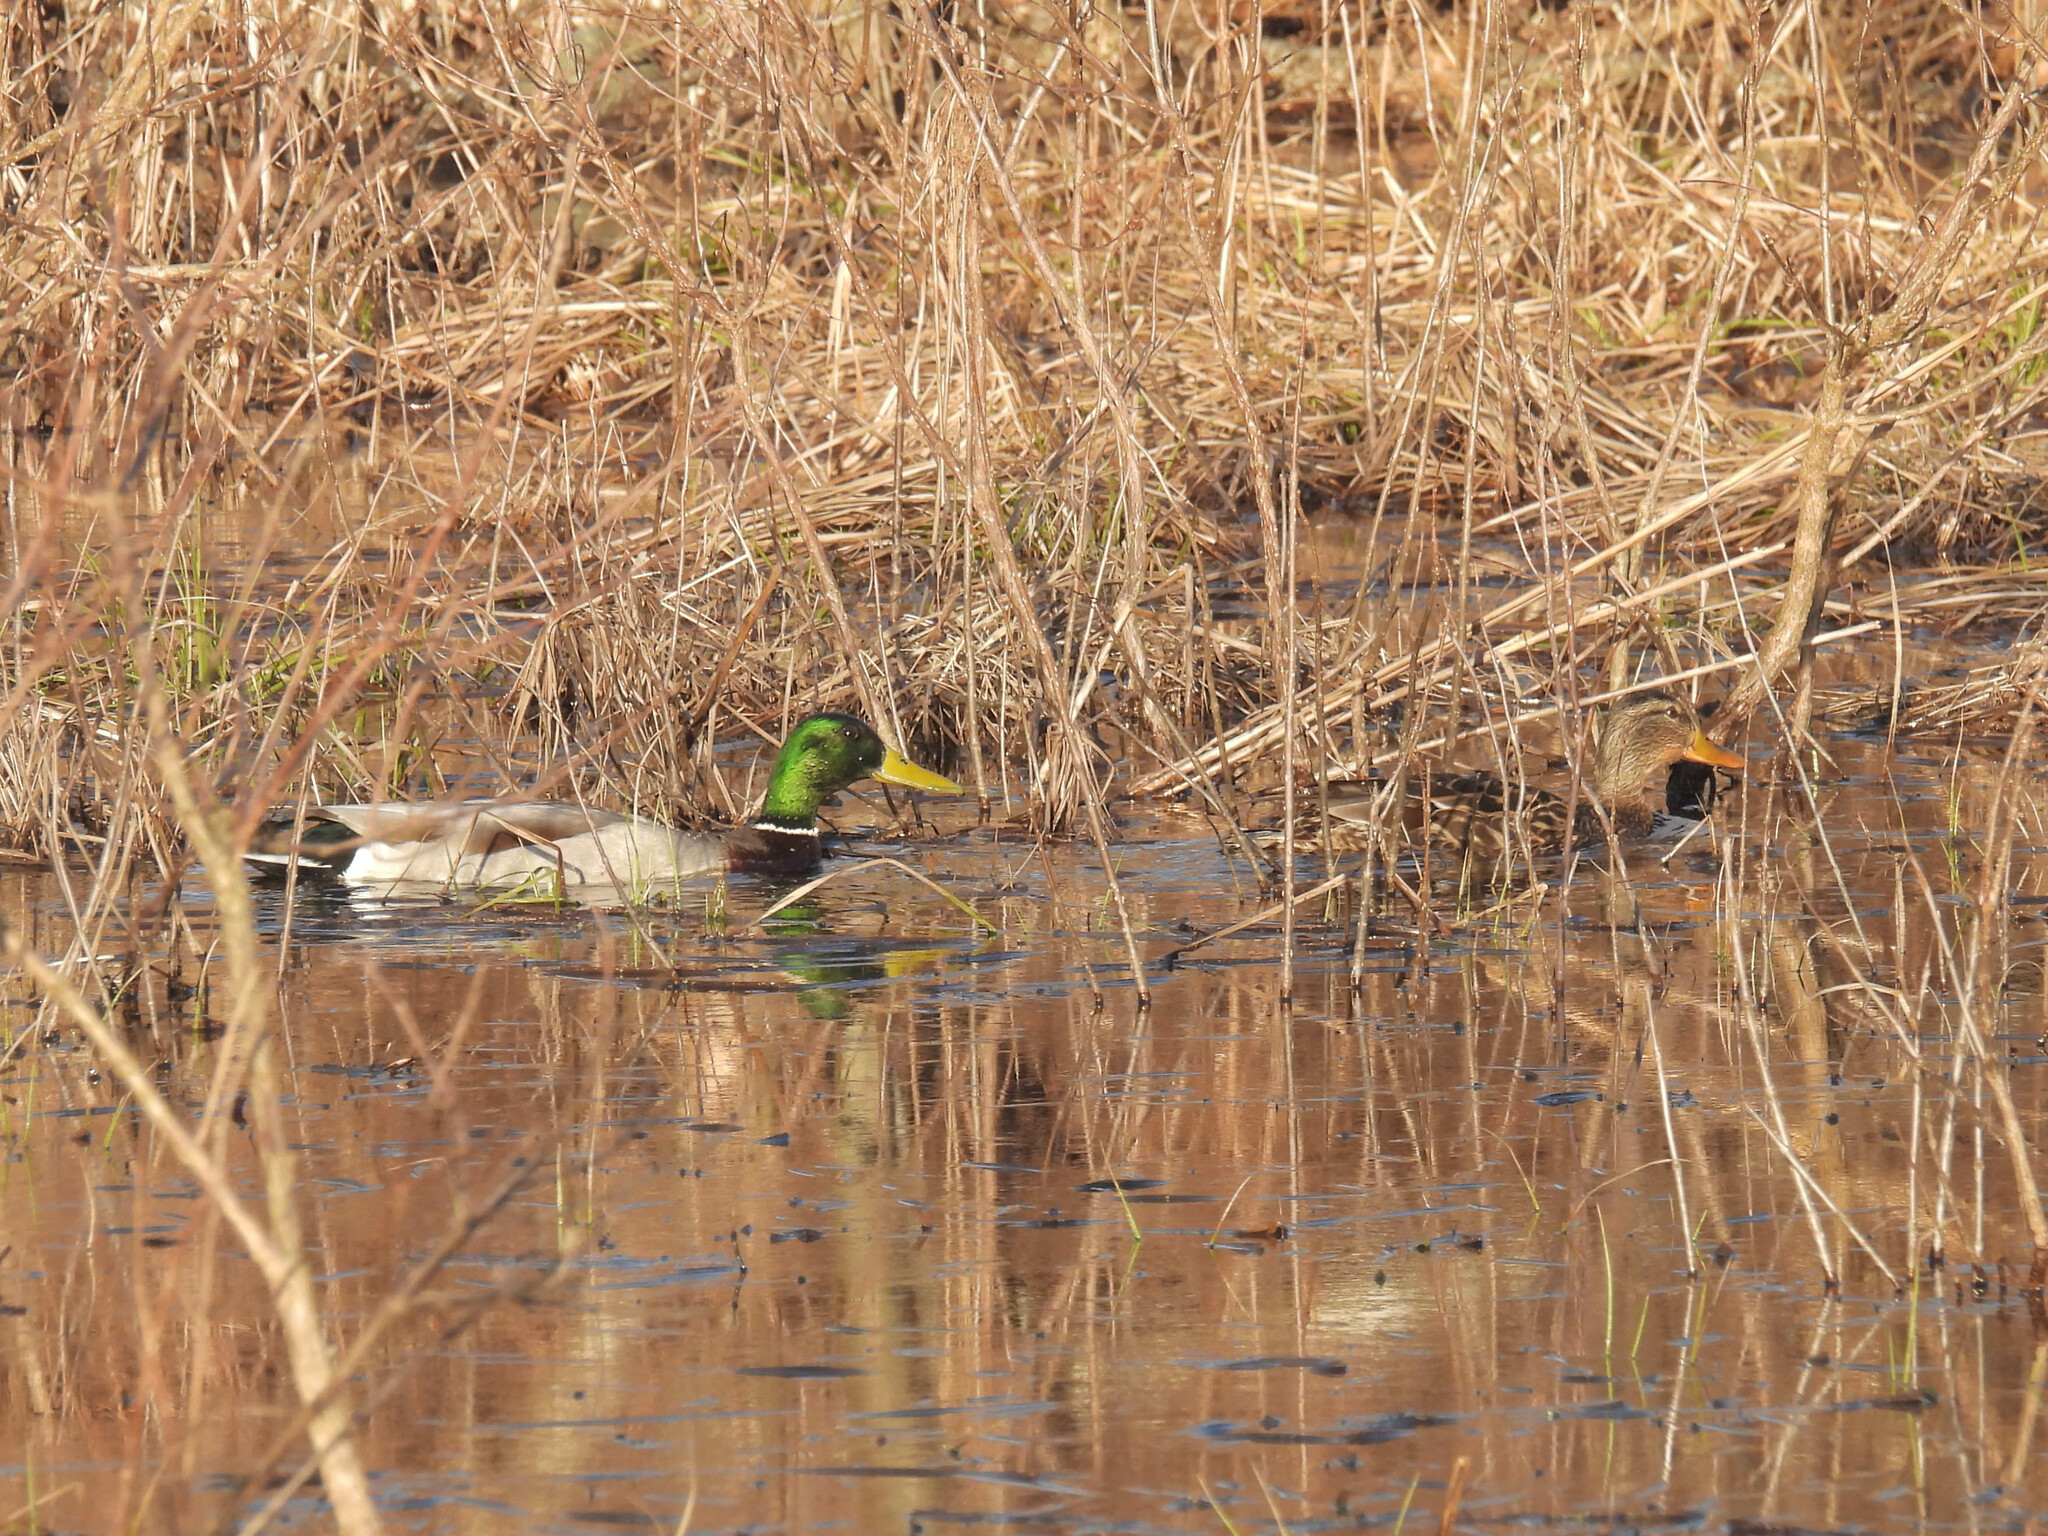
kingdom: Animalia
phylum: Chordata
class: Aves
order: Anseriformes
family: Anatidae
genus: Anas
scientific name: Anas platyrhynchos
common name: Mallard
